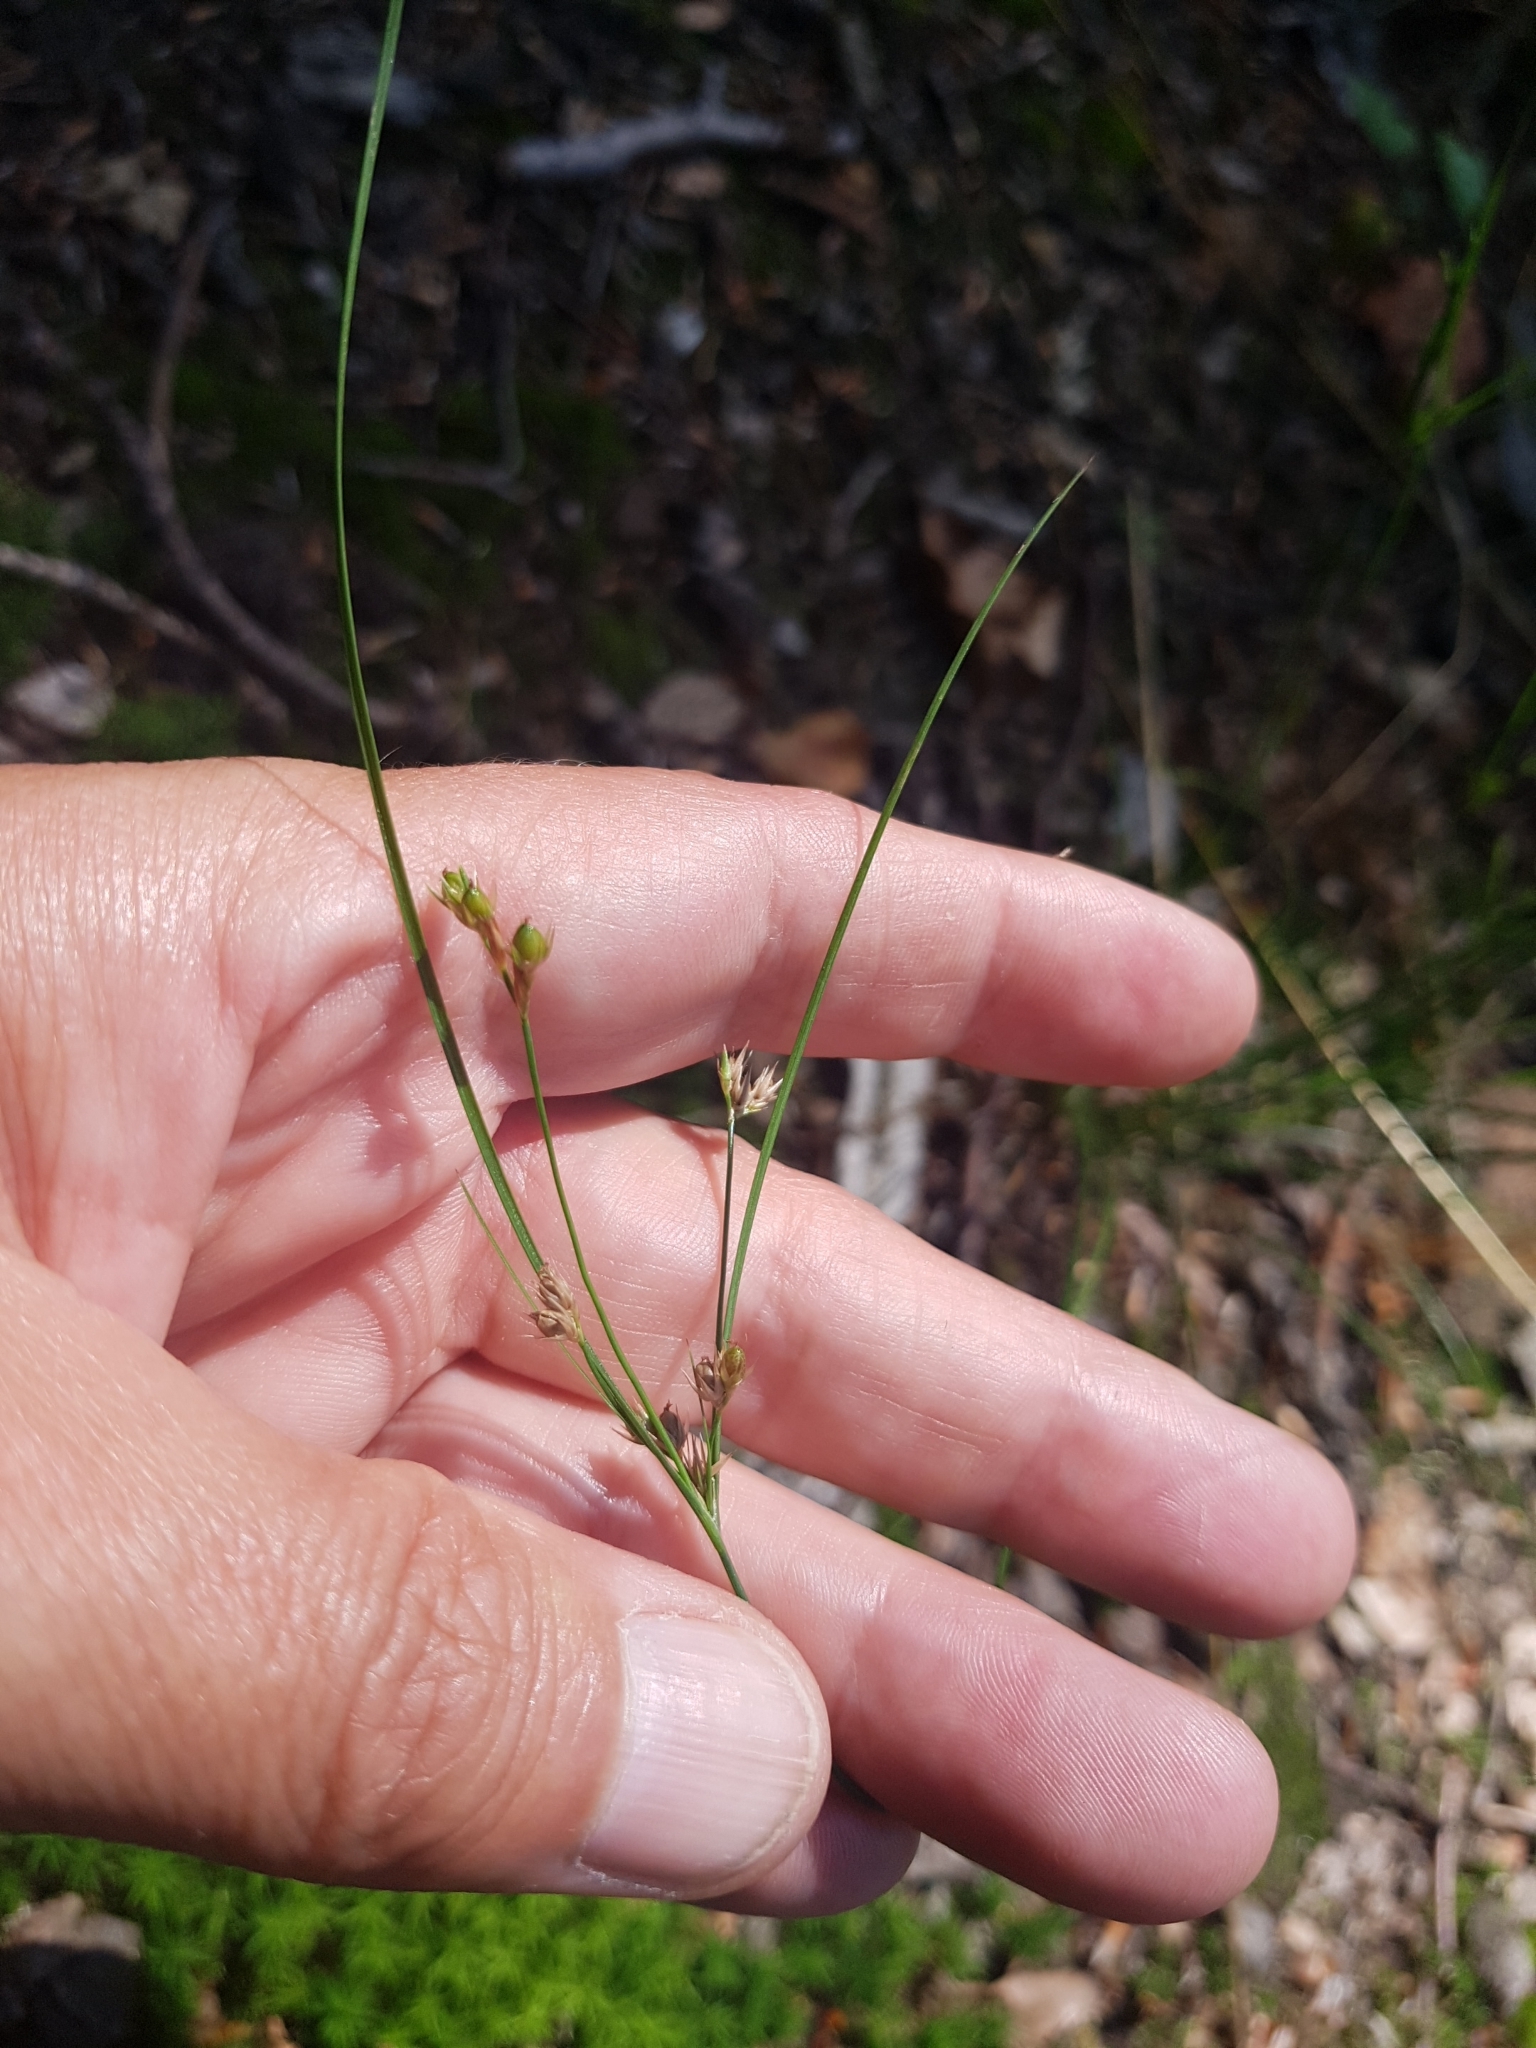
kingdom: Plantae
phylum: Tracheophyta
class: Liliopsida
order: Poales
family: Juncaceae
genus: Juncus
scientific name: Juncus tenuis
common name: Slender rush
